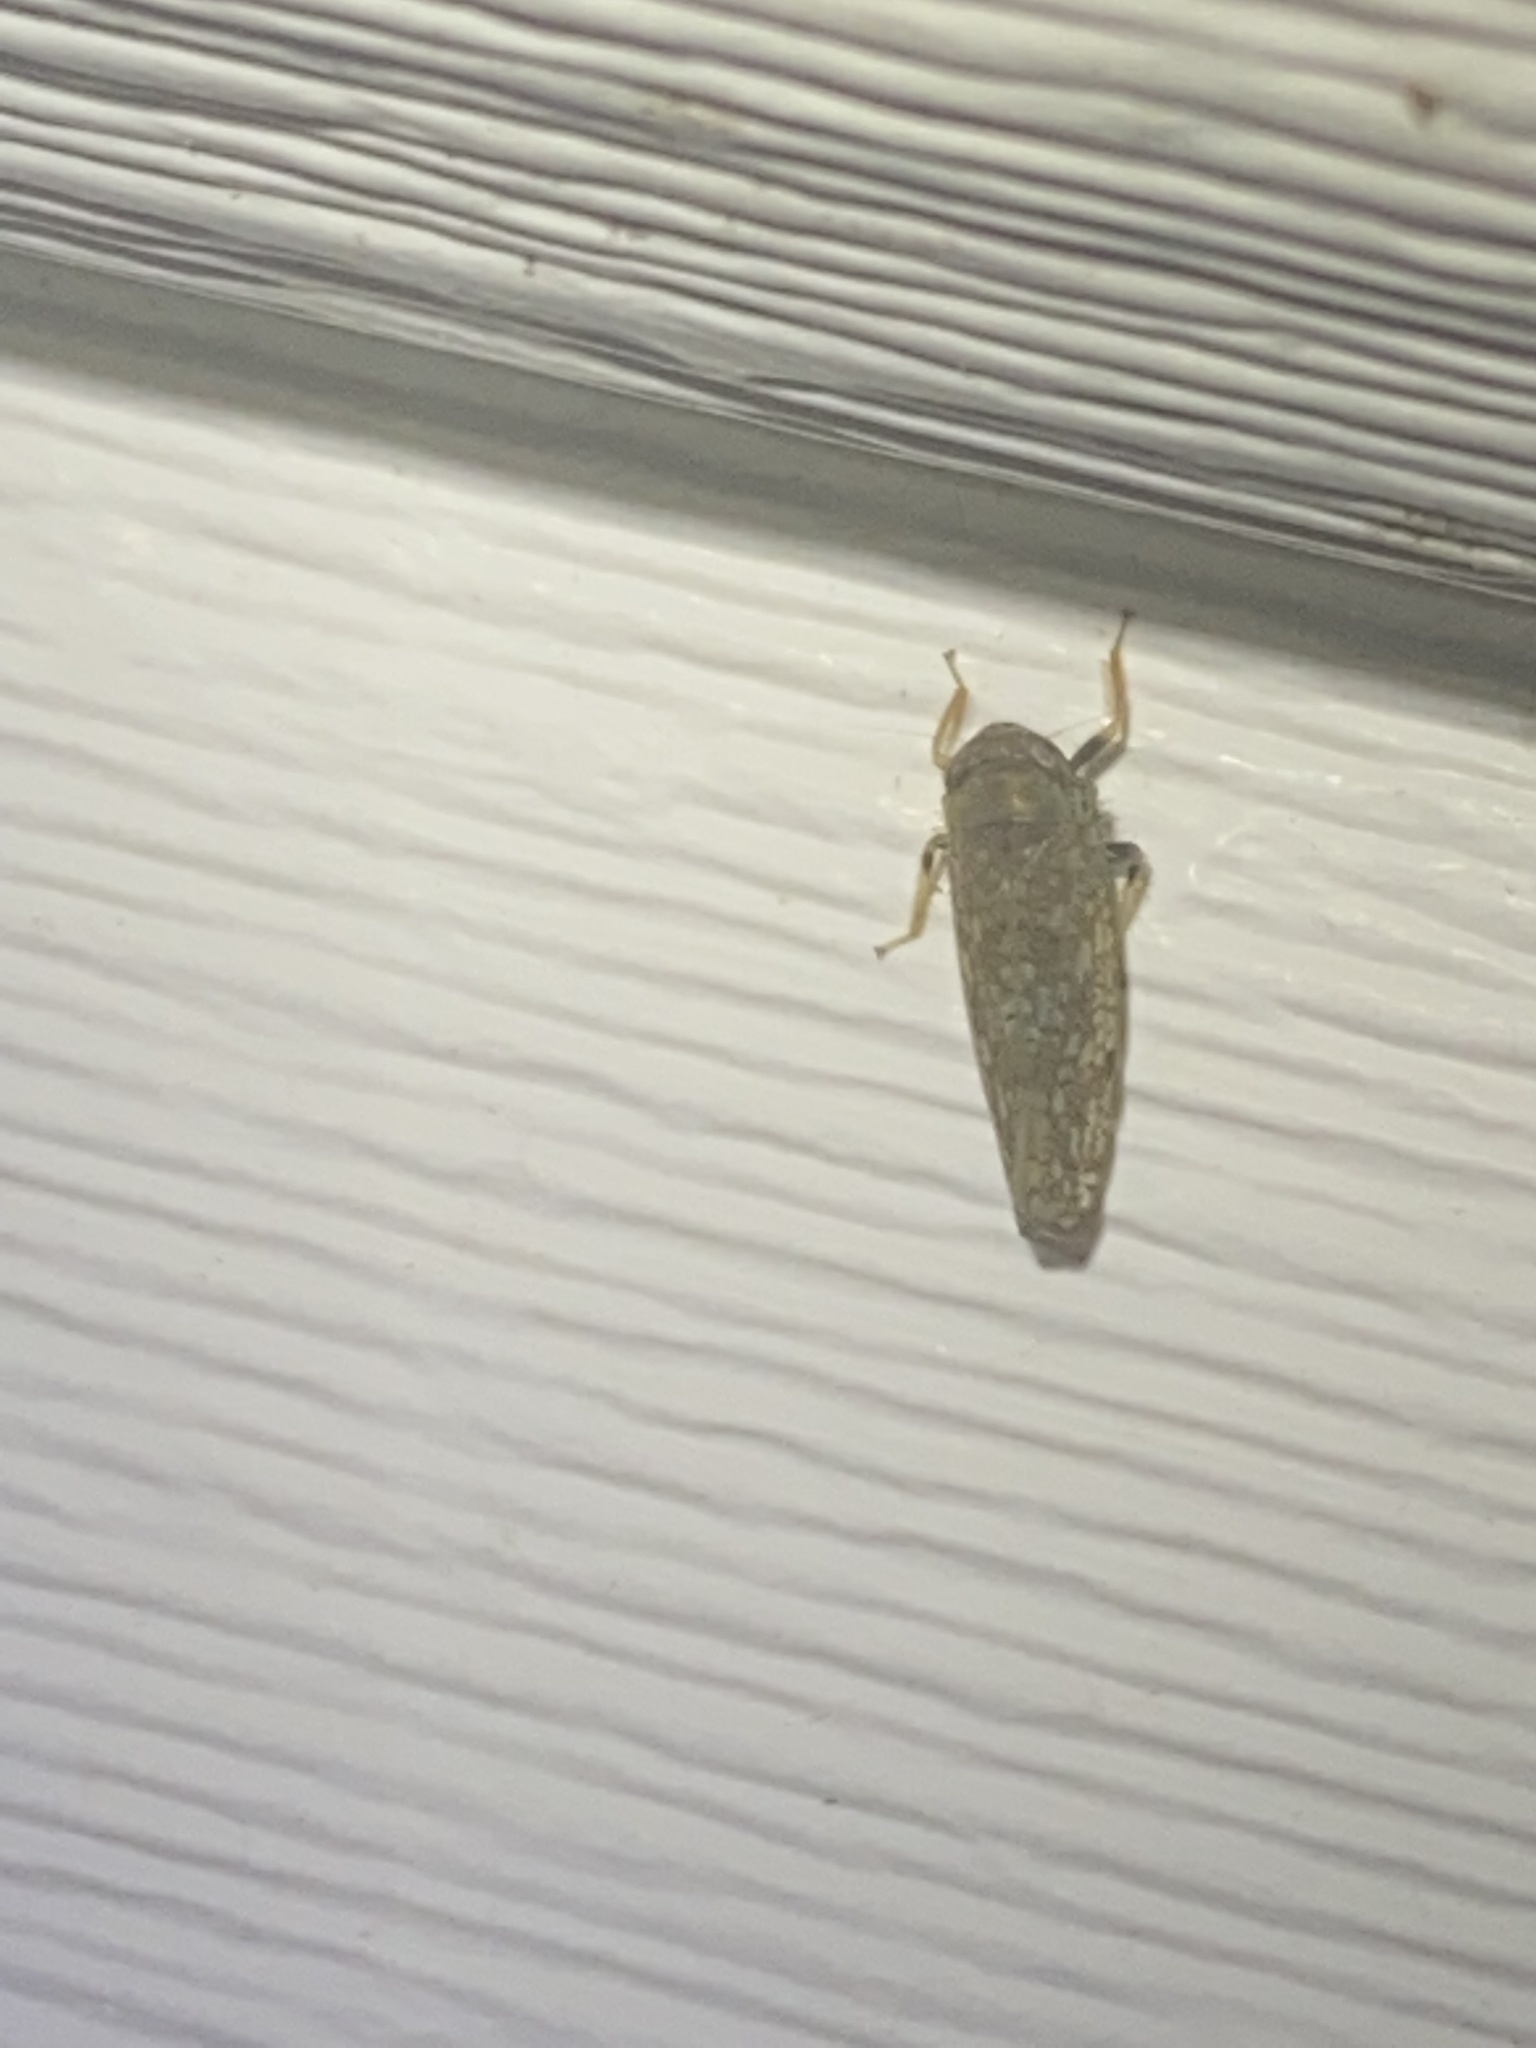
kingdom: Animalia
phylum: Arthropoda
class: Insecta
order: Hemiptera
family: Cicadellidae
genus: Orientus
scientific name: Orientus ishidae
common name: Japanese leafhopper
